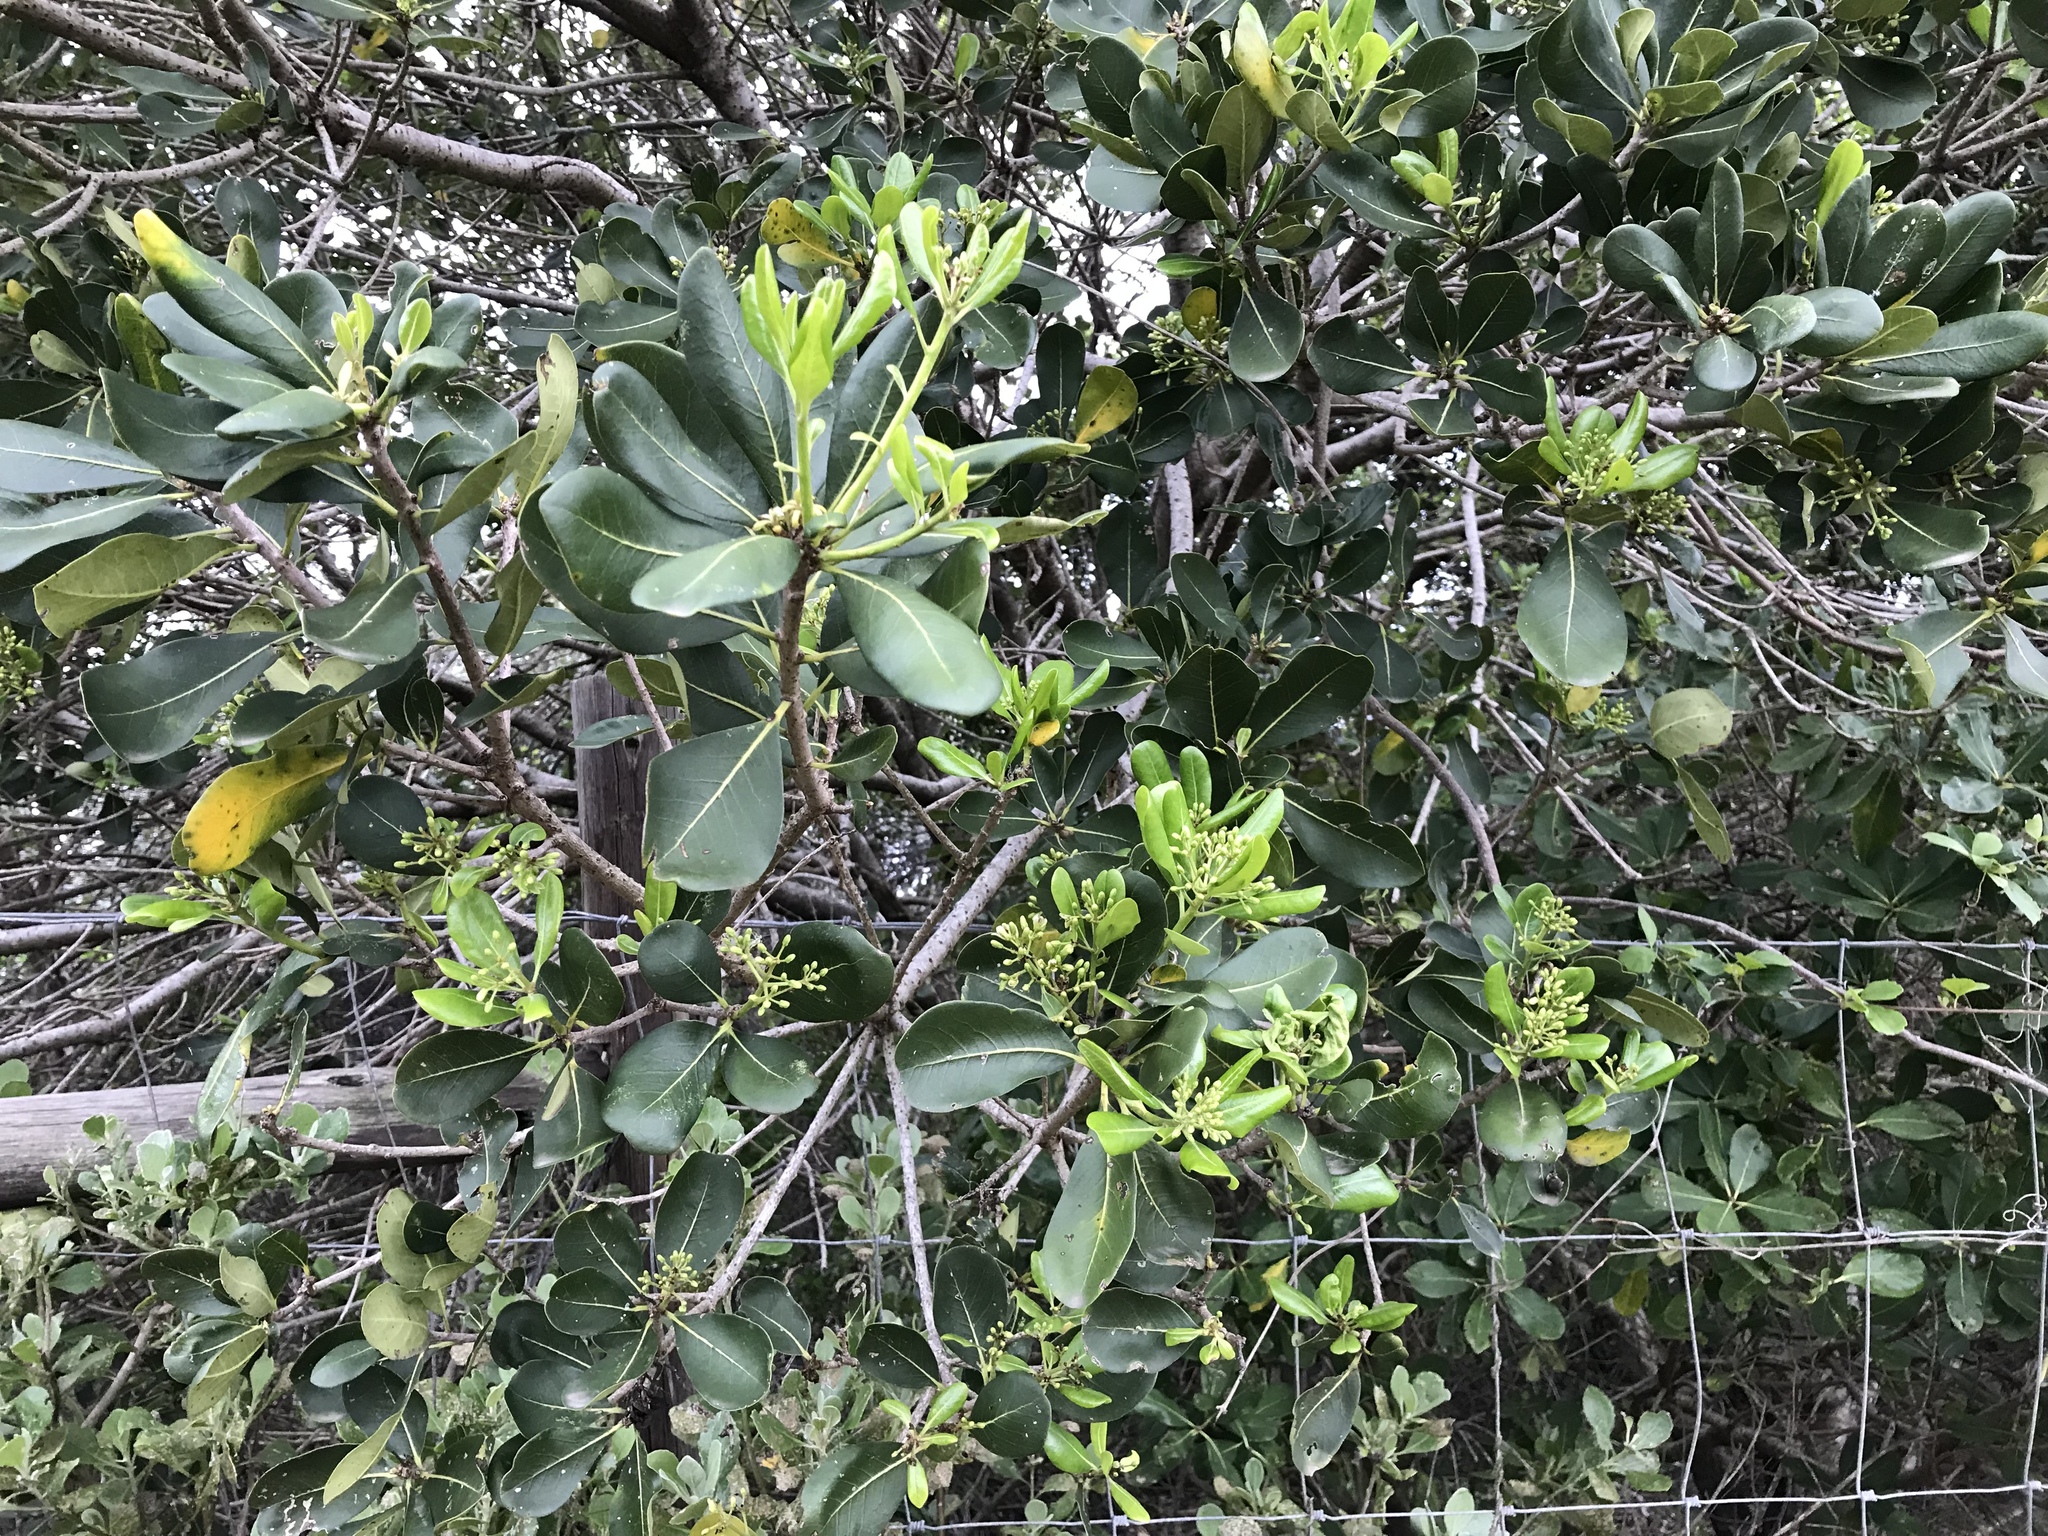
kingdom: Plantae
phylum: Tracheophyta
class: Magnoliopsida
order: Apiales
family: Pittosporaceae
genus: Pittosporum
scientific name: Pittosporum viridiflorum
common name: Cape cheesewood
